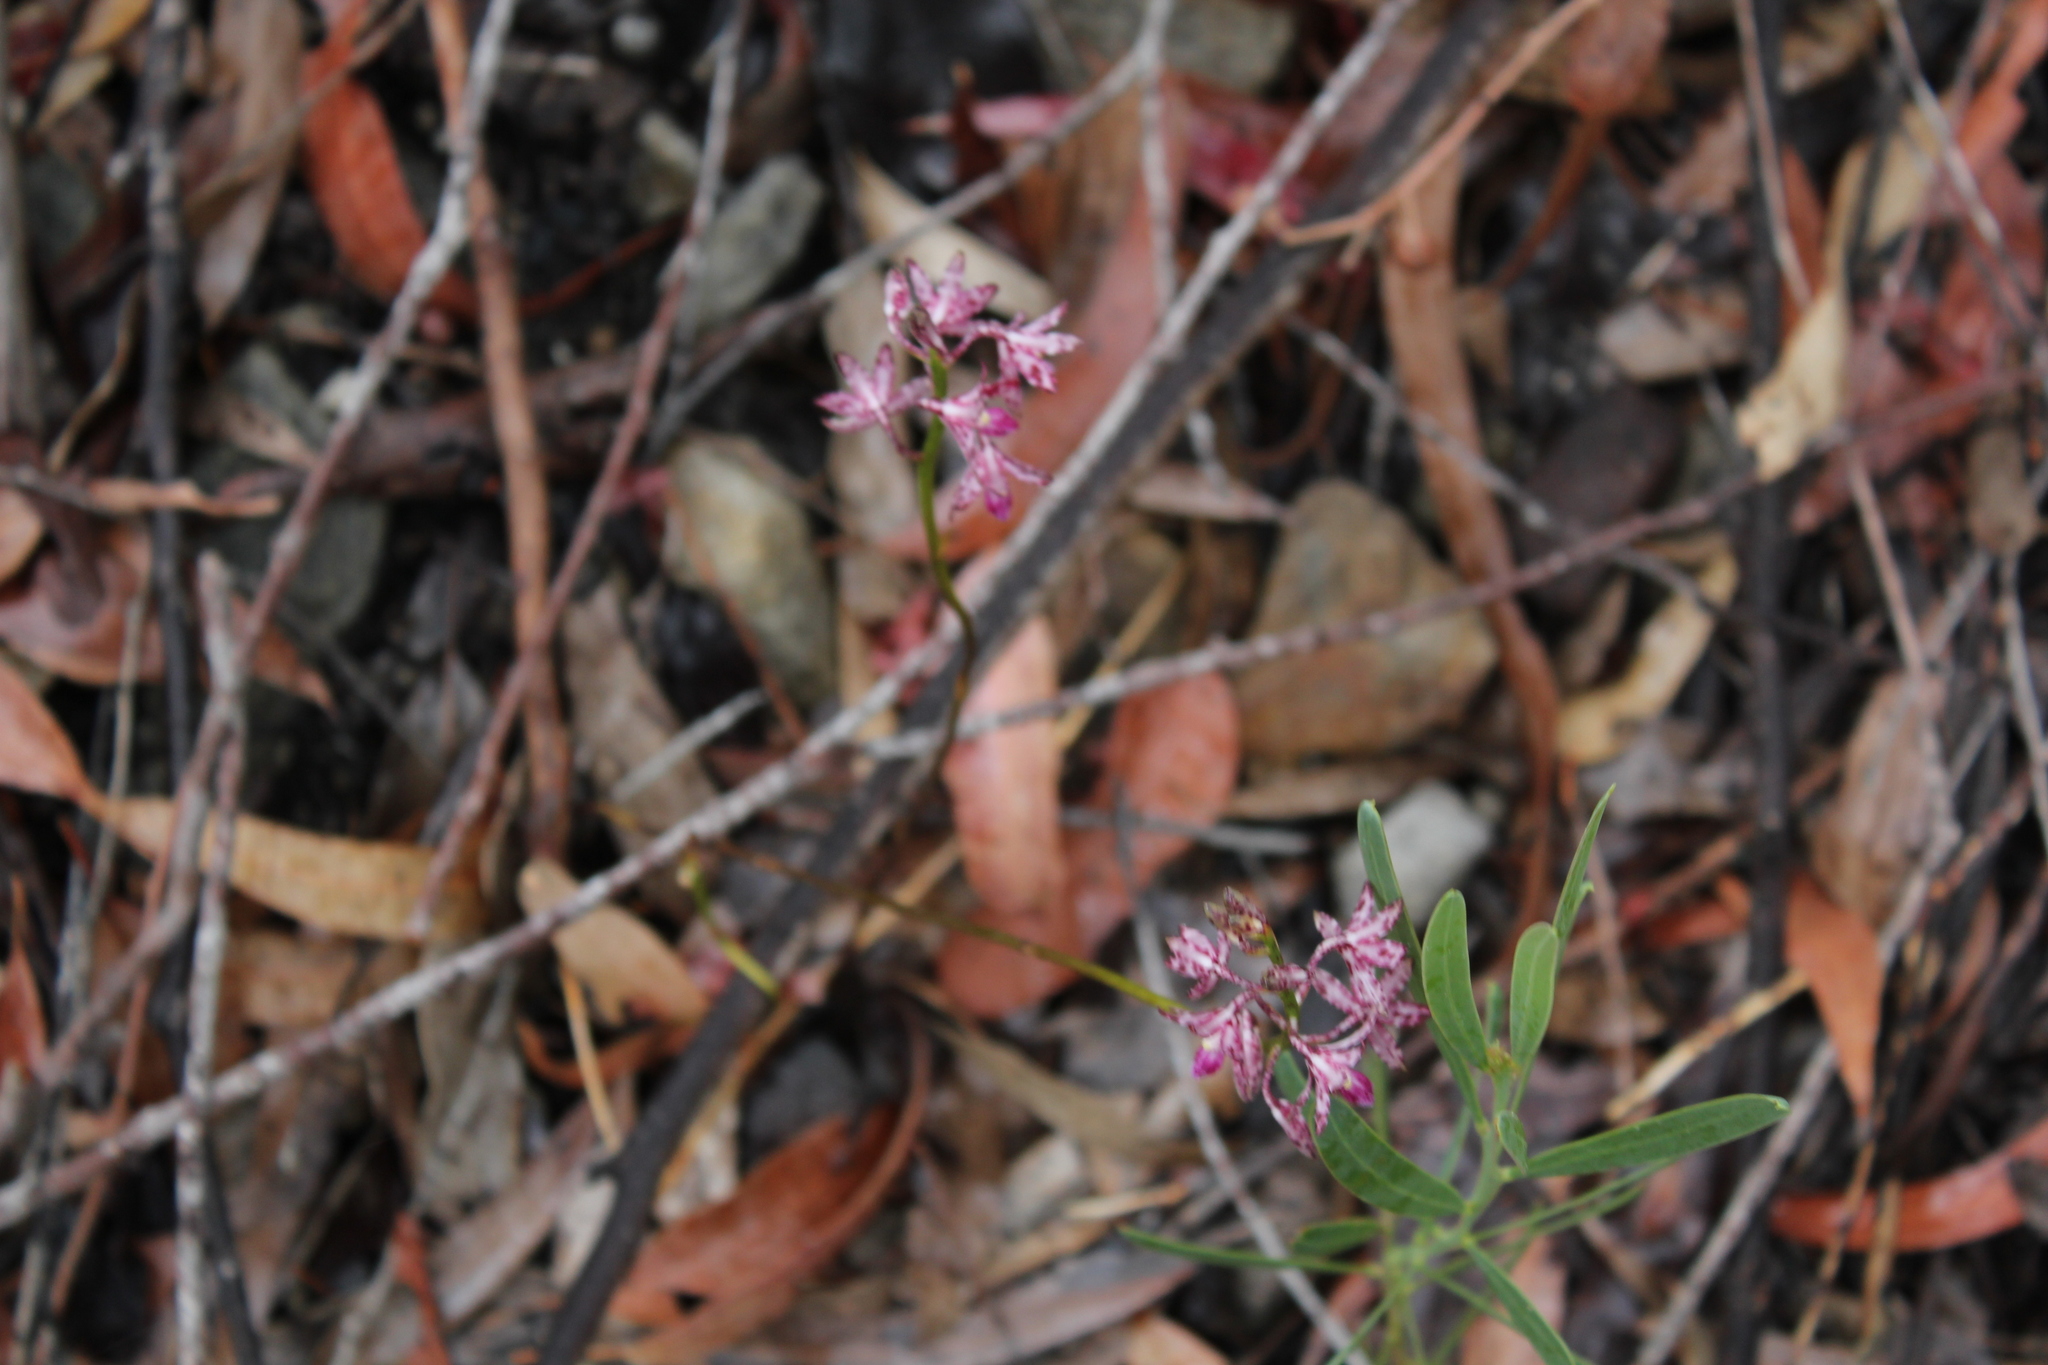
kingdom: Plantae
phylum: Tracheophyta
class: Liliopsida
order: Asparagales
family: Orchidaceae
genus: Dipodium
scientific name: Dipodium variegatum
